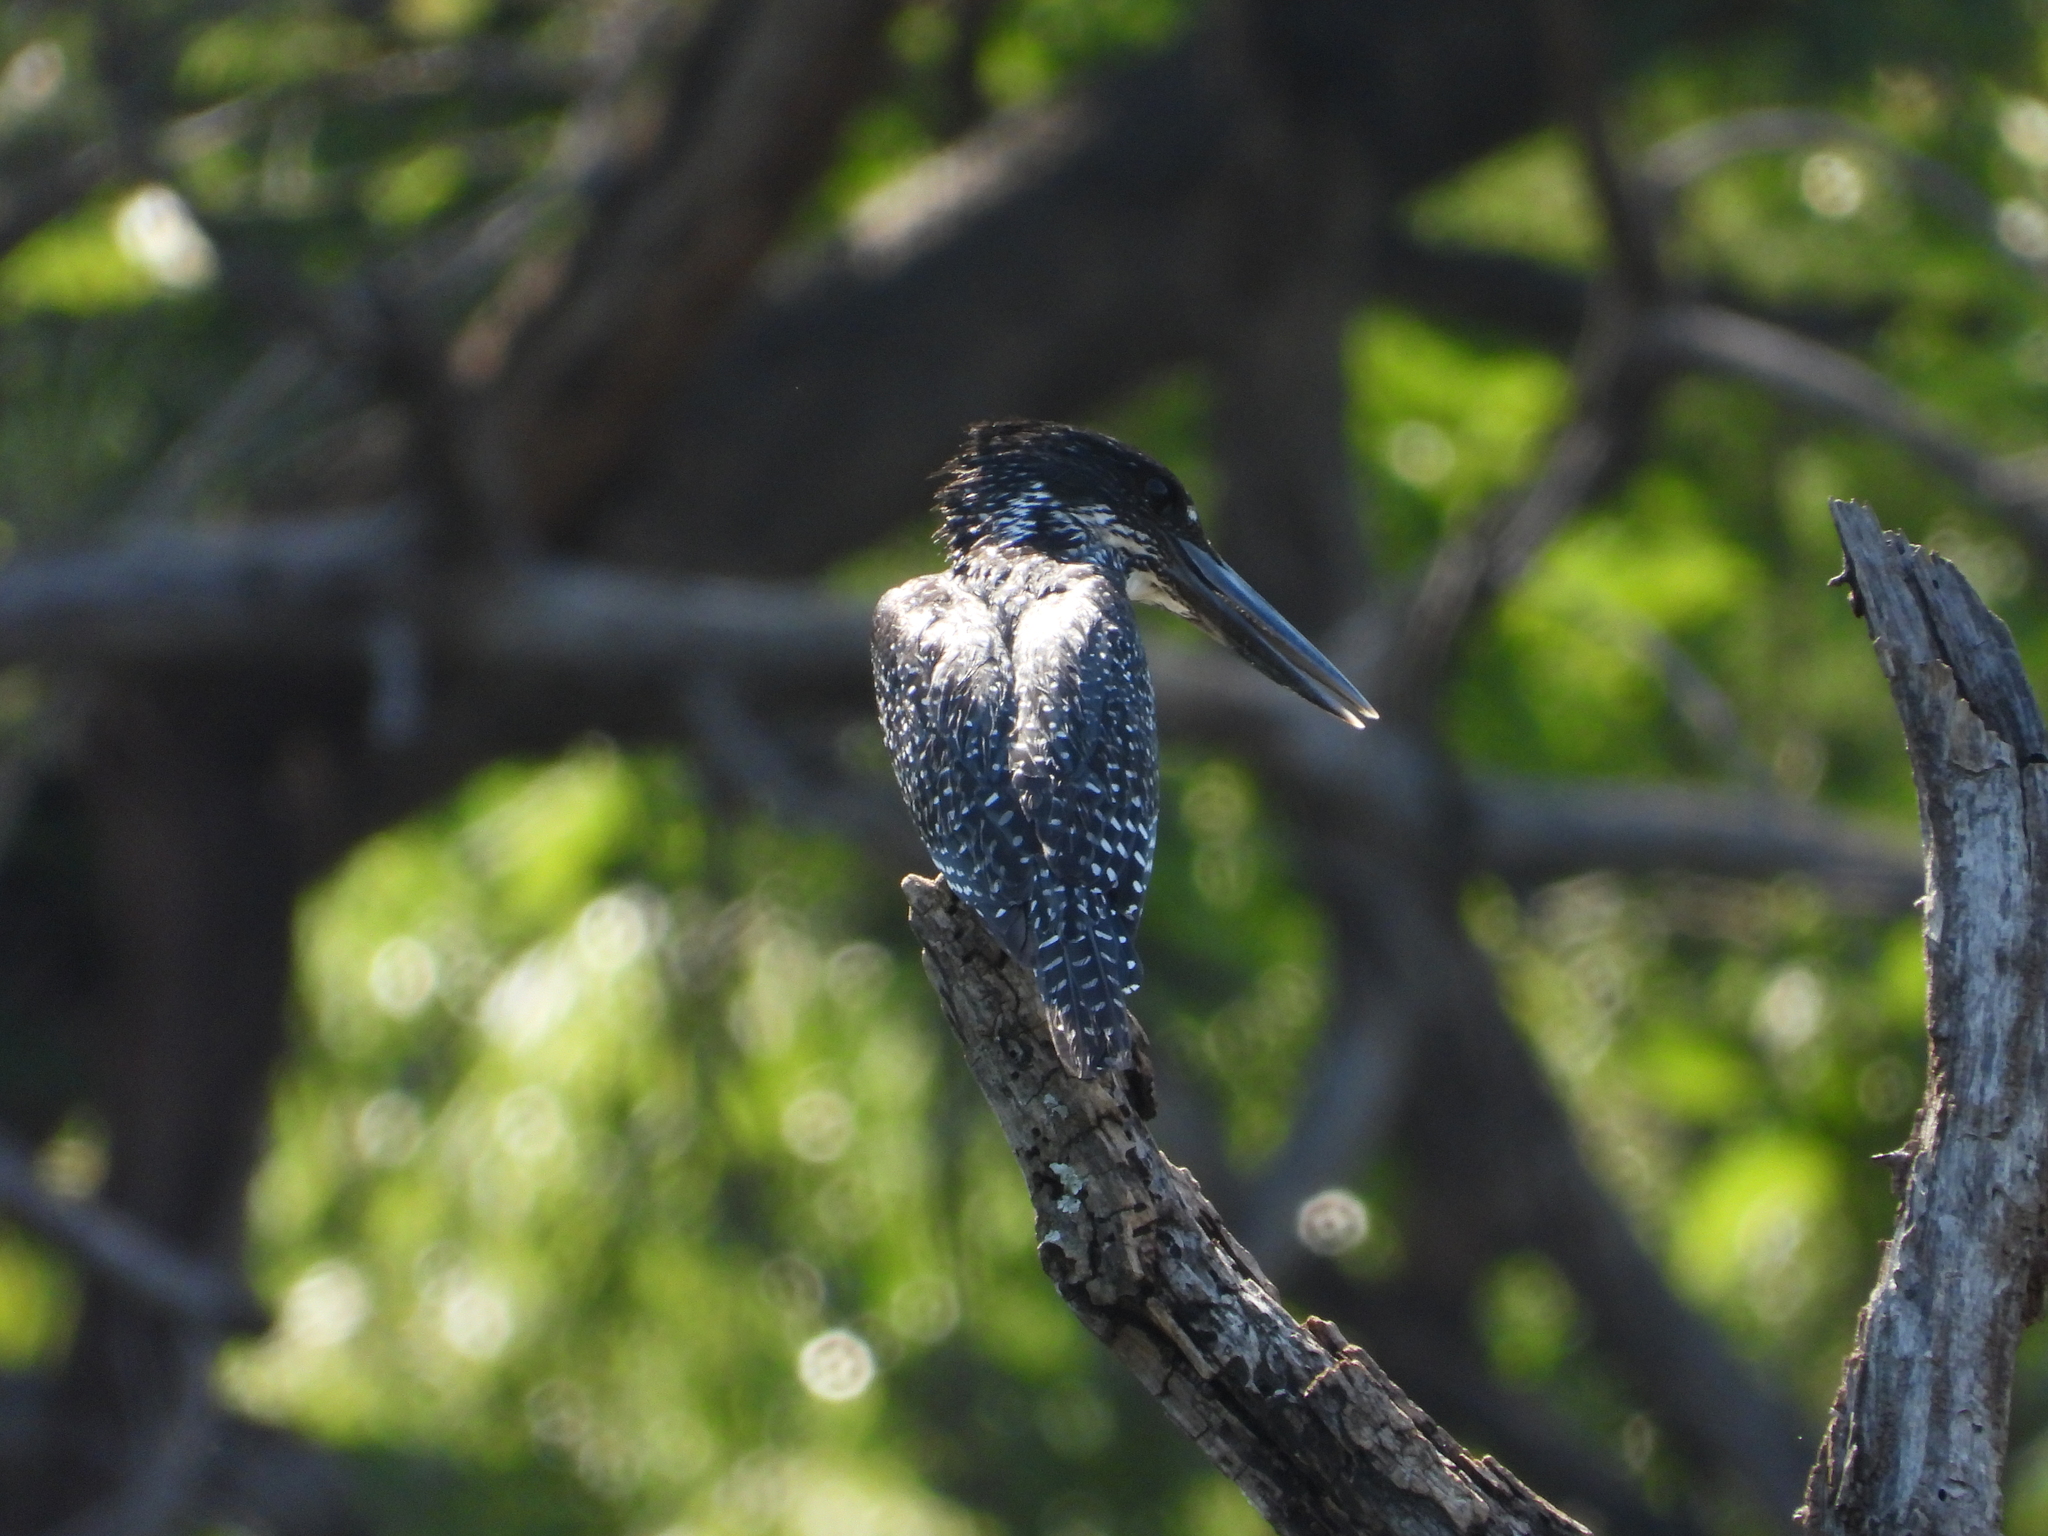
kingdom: Animalia
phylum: Chordata
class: Aves
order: Coraciiformes
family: Alcedinidae
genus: Megaceryle
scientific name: Megaceryle maxima
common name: Giant kingfisher
